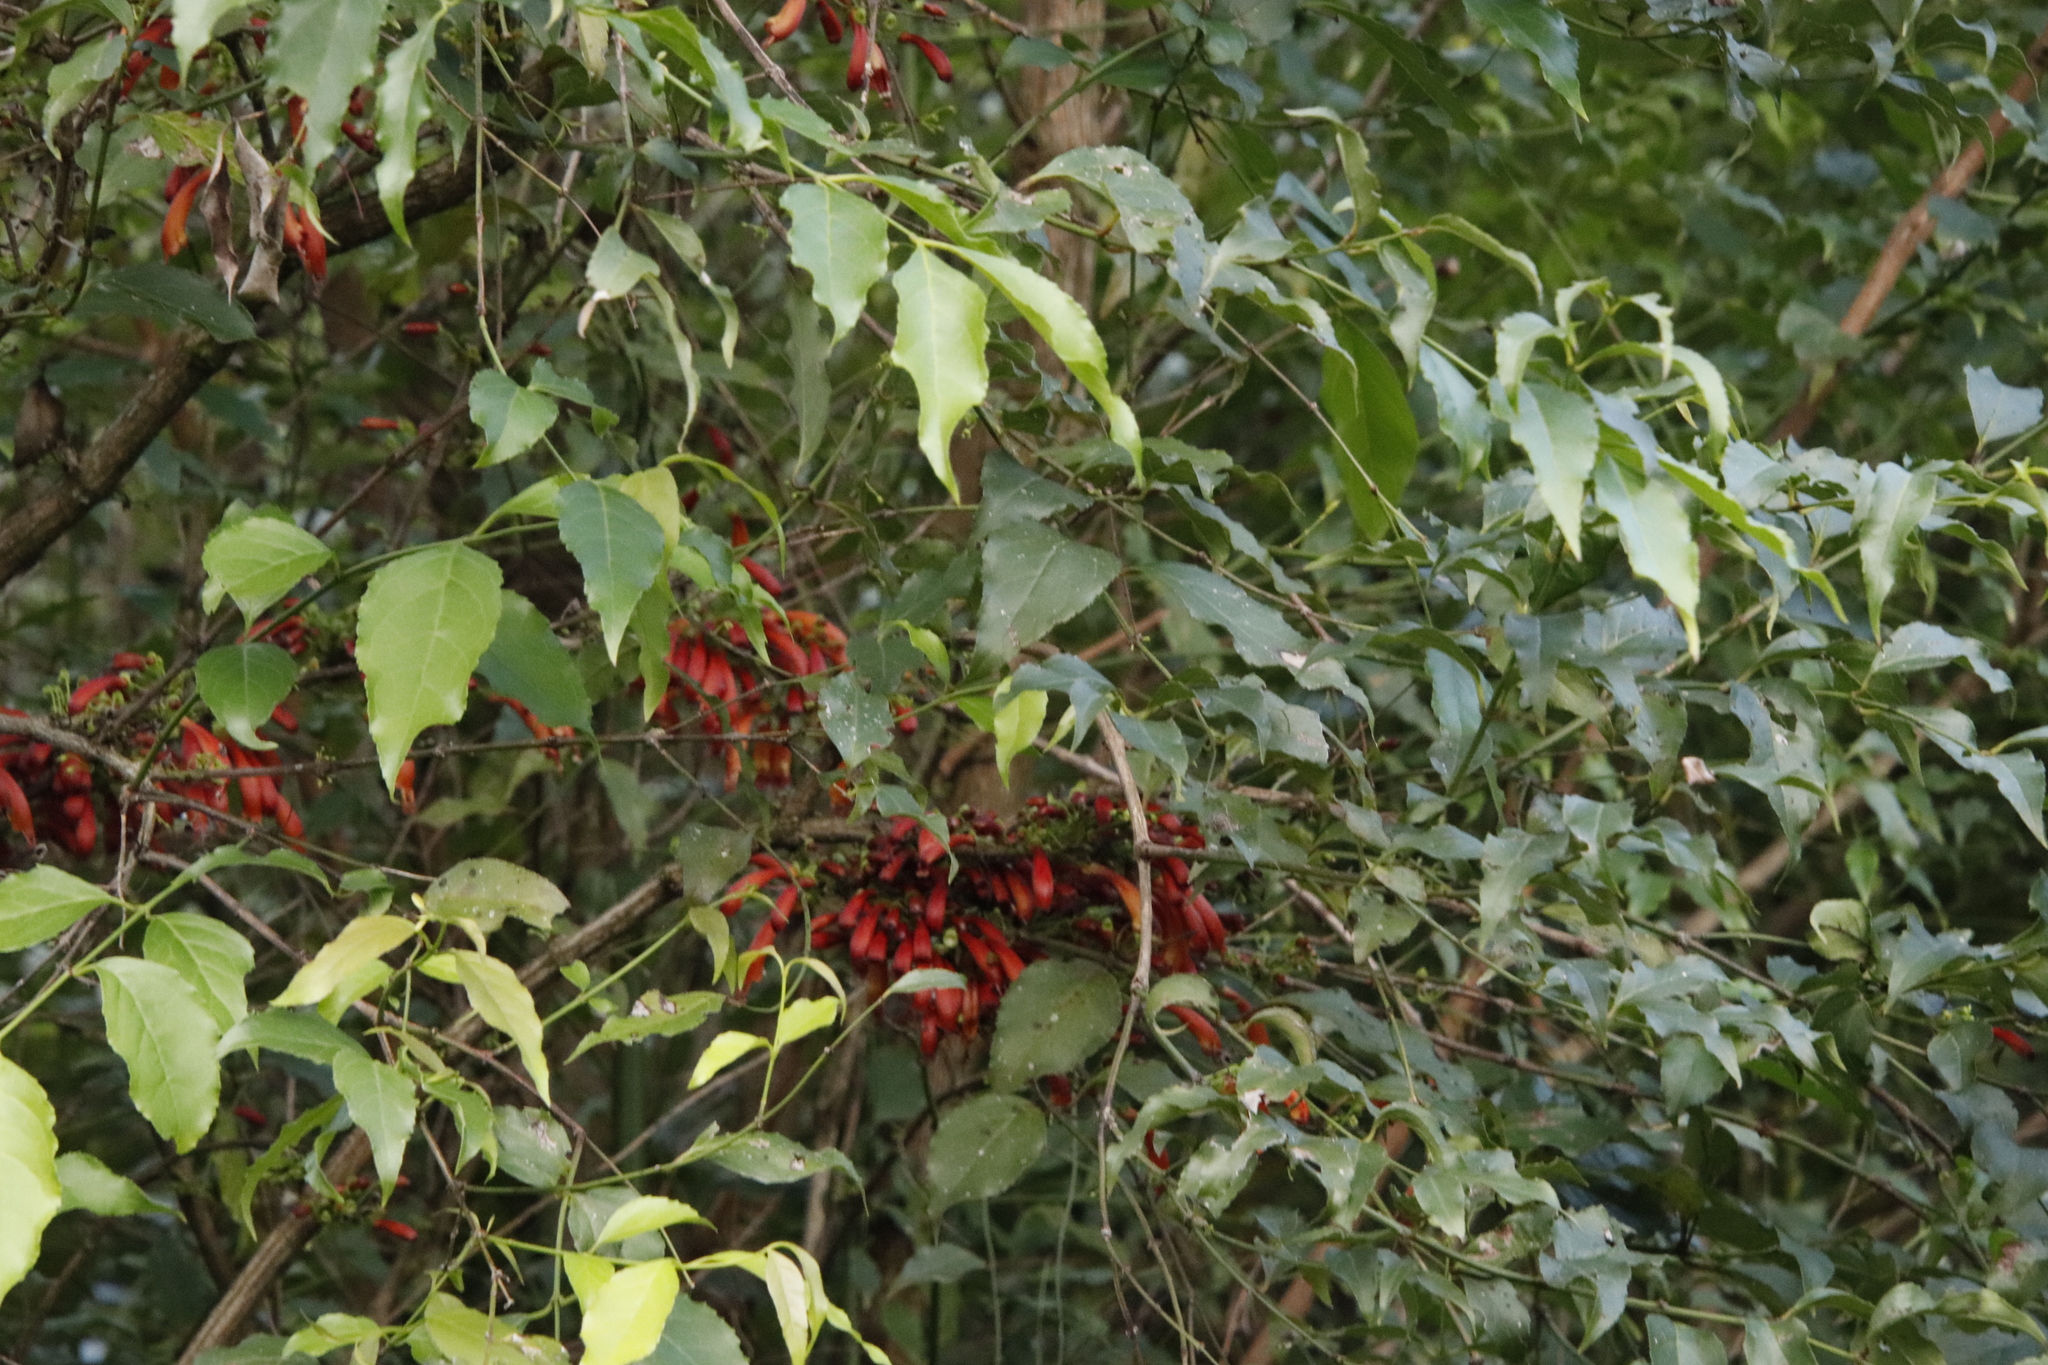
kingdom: Plantae
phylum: Tracheophyta
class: Magnoliopsida
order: Lamiales
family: Stilbaceae
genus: Halleria
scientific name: Halleria lucida
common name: Tree fuschia
